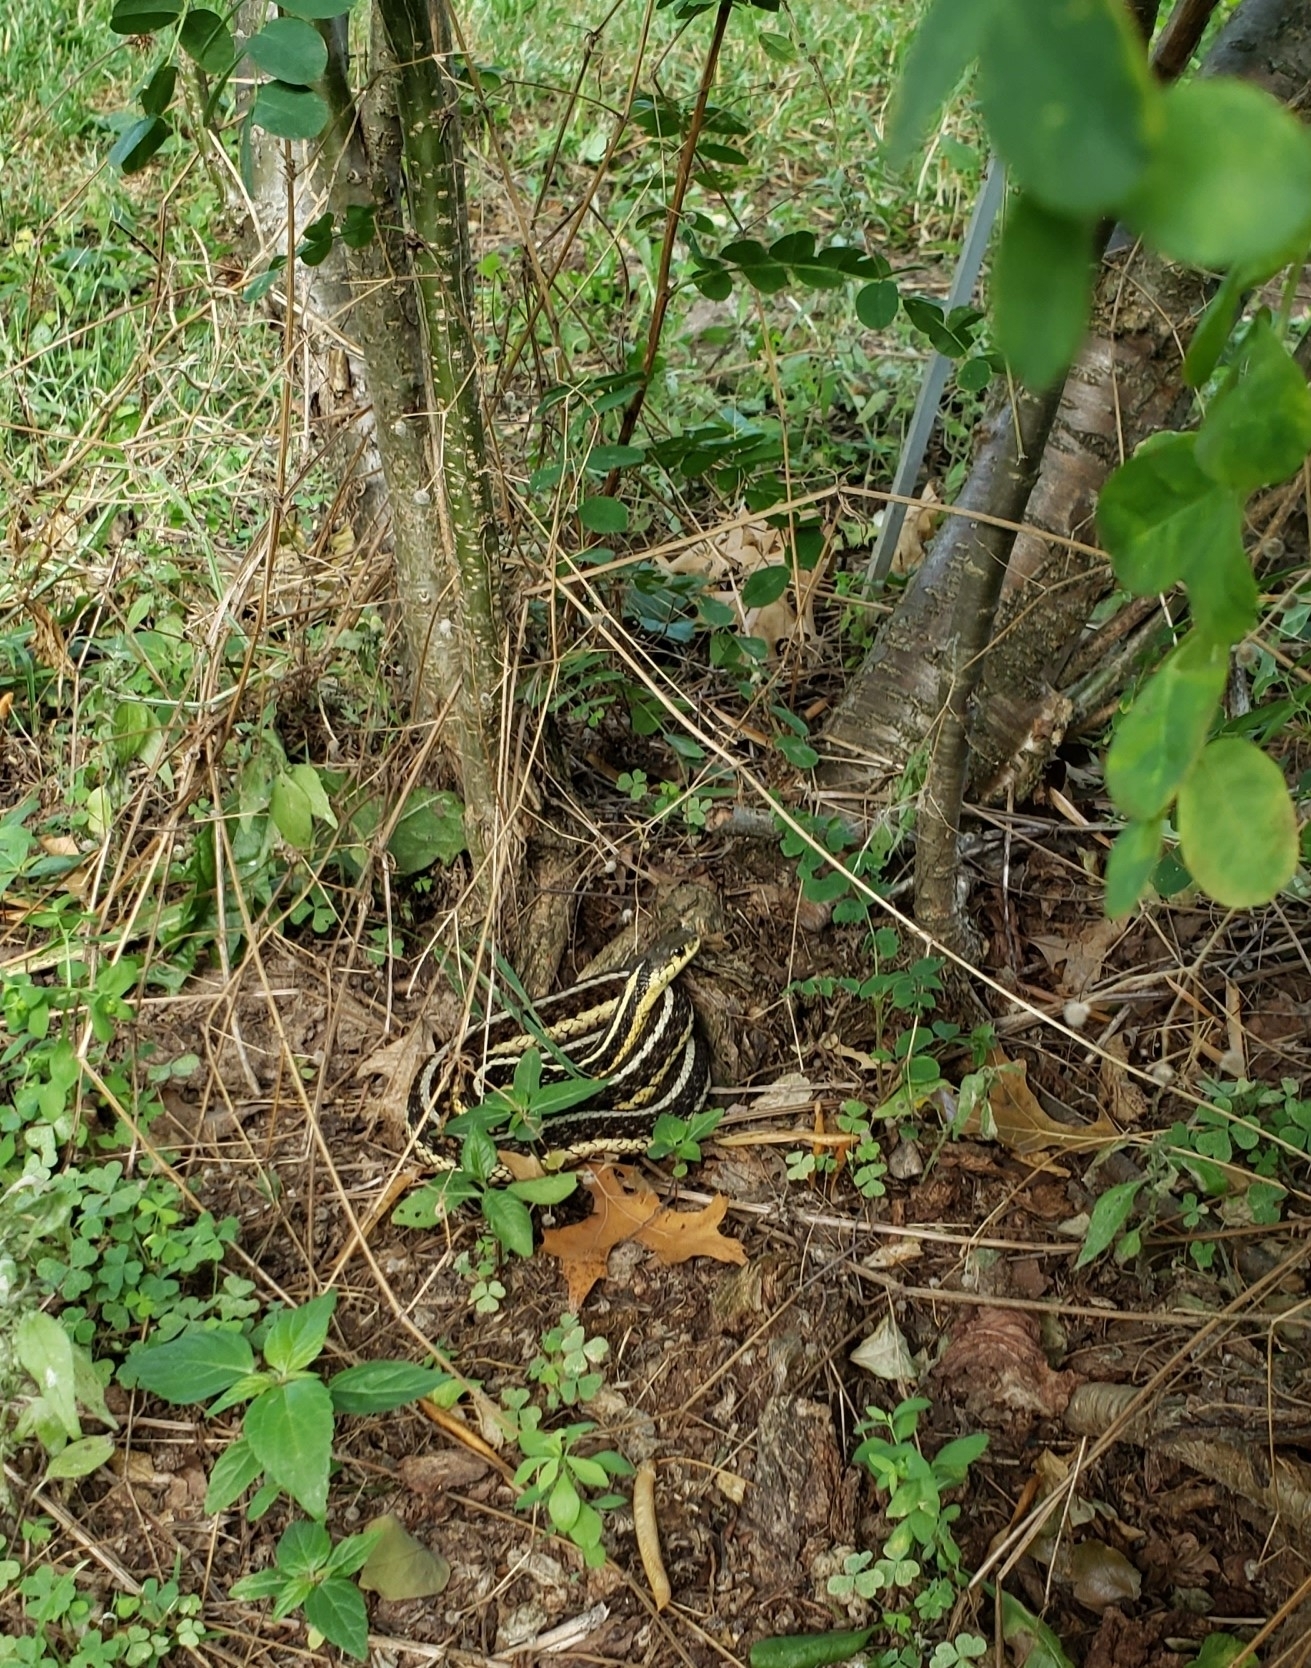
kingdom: Animalia
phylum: Chordata
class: Squamata
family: Colubridae
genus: Thamnophis
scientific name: Thamnophis sirtalis
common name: Common garter snake
